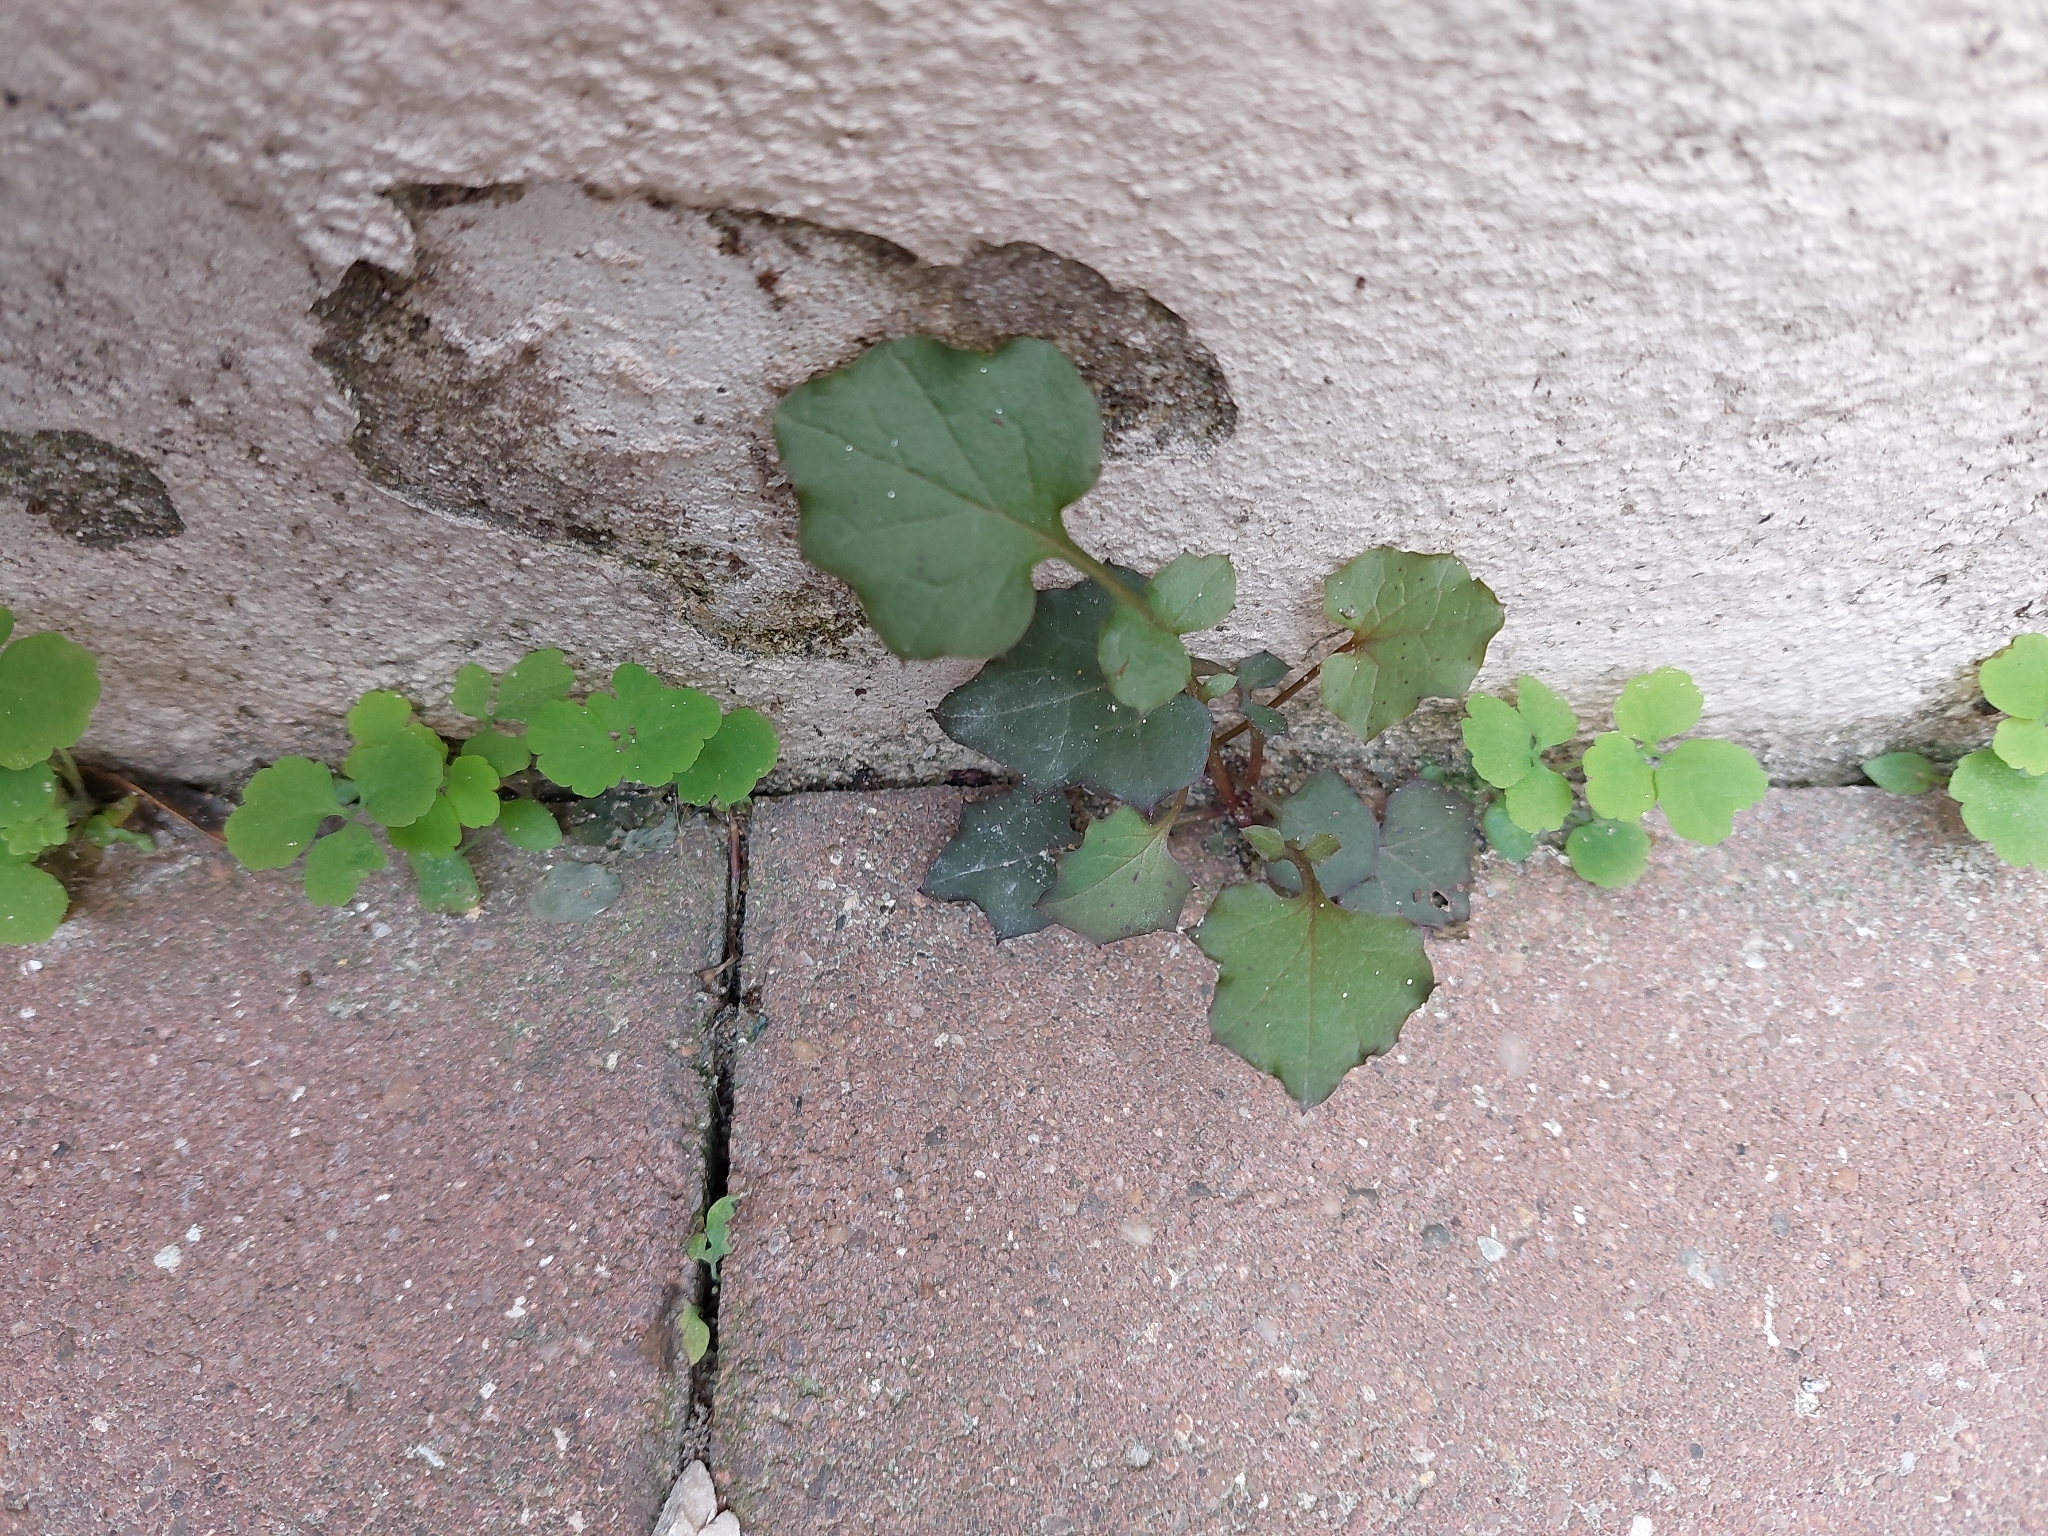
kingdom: Plantae
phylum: Tracheophyta
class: Magnoliopsida
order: Asterales
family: Asteraceae
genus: Mycelis
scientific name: Mycelis muralis
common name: Wall lettuce
